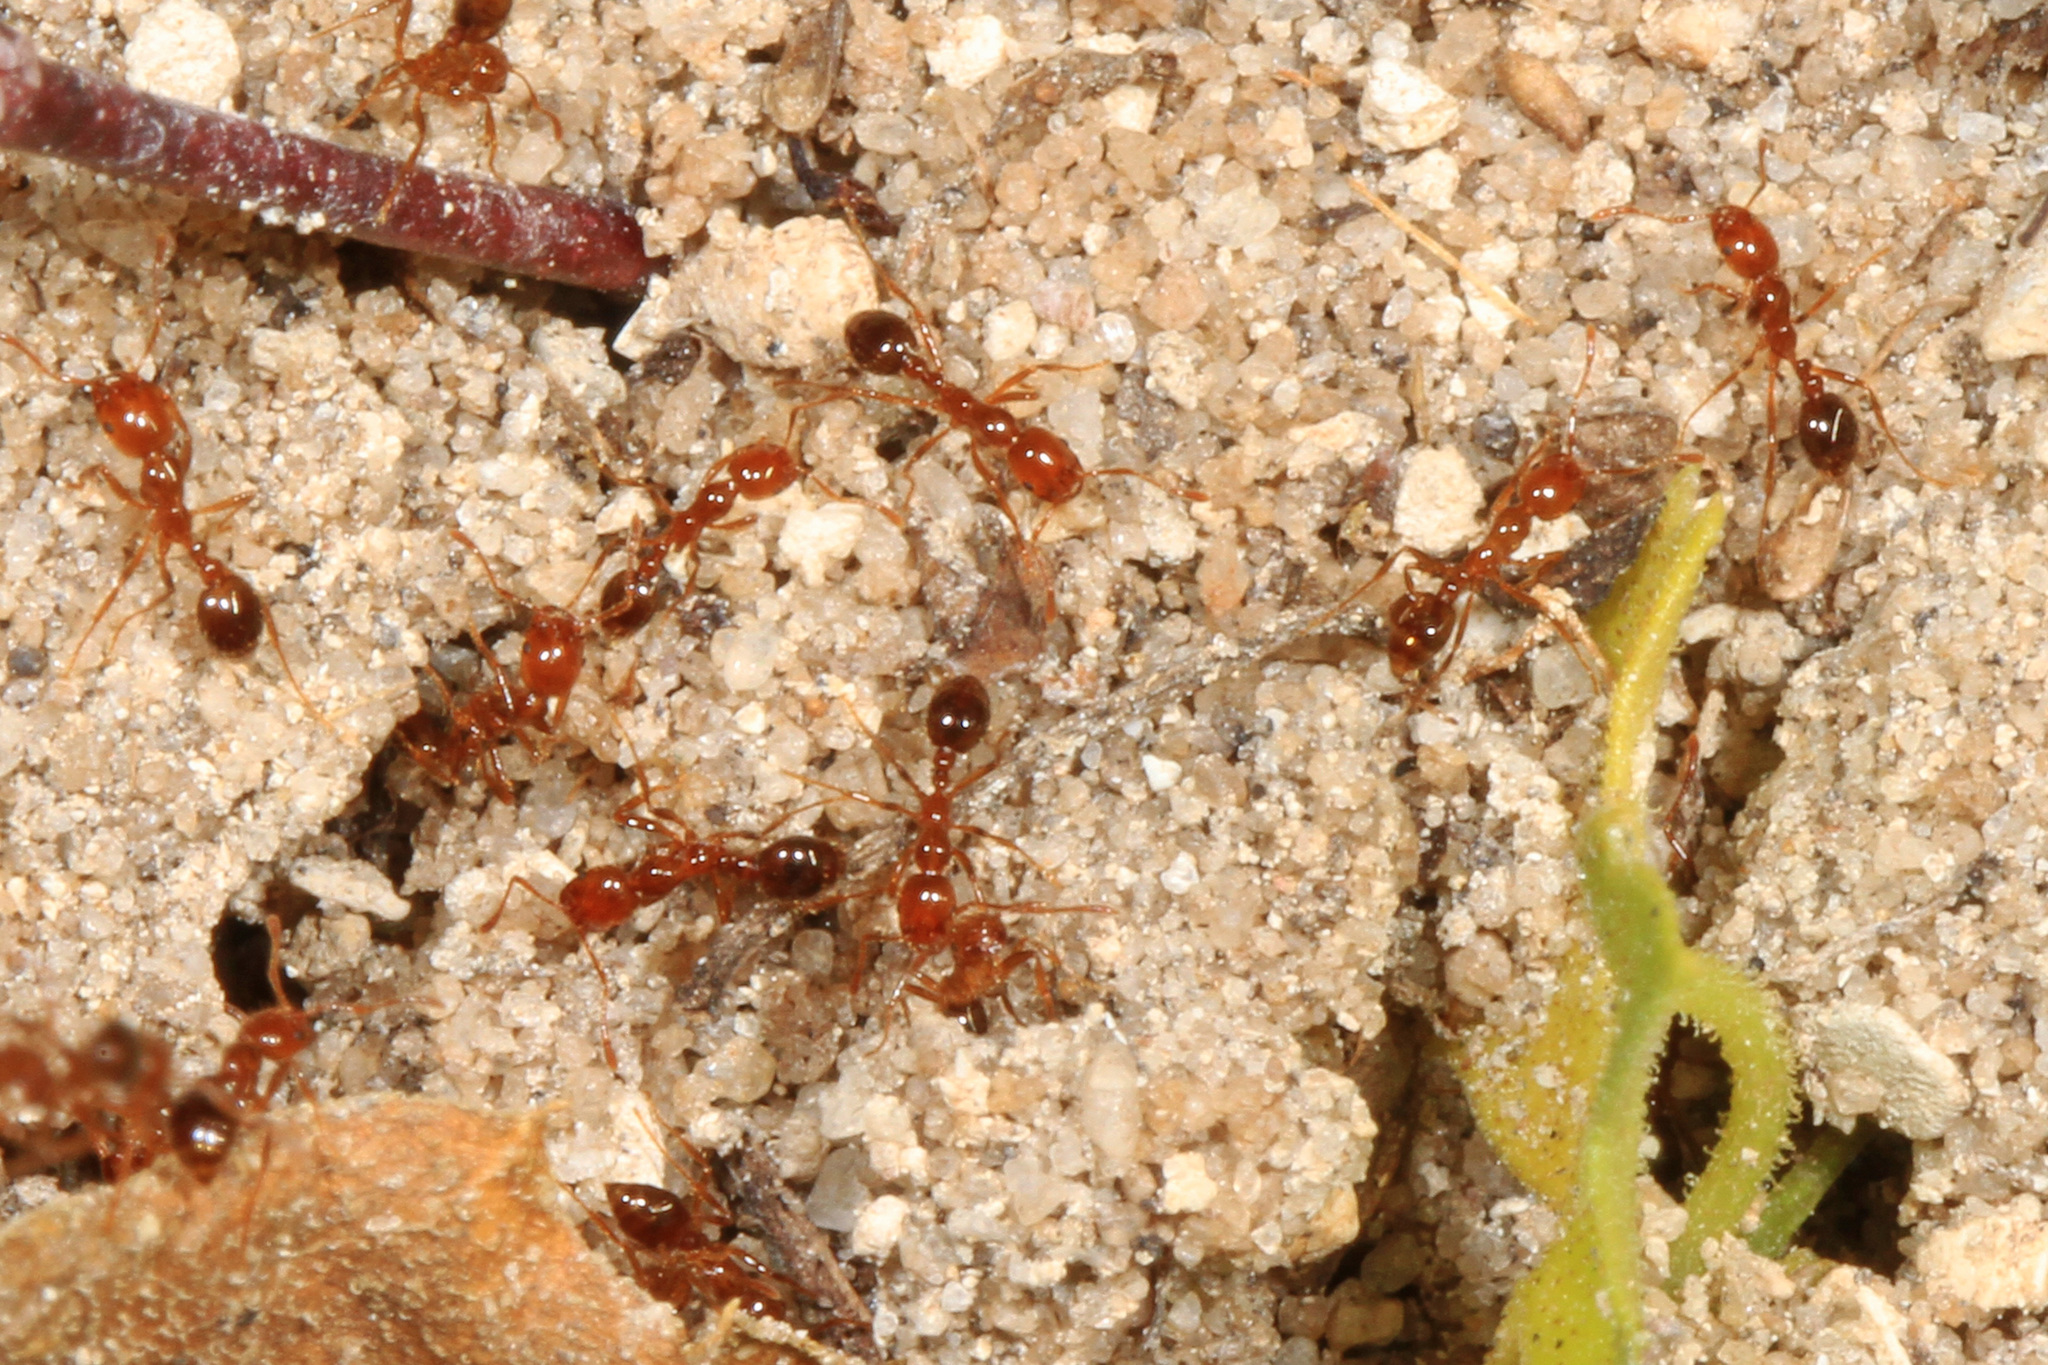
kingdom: Animalia
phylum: Arthropoda
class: Insecta
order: Hymenoptera
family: Formicidae
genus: Solenopsis
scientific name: Solenopsis invicta
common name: Red imported fire ant
